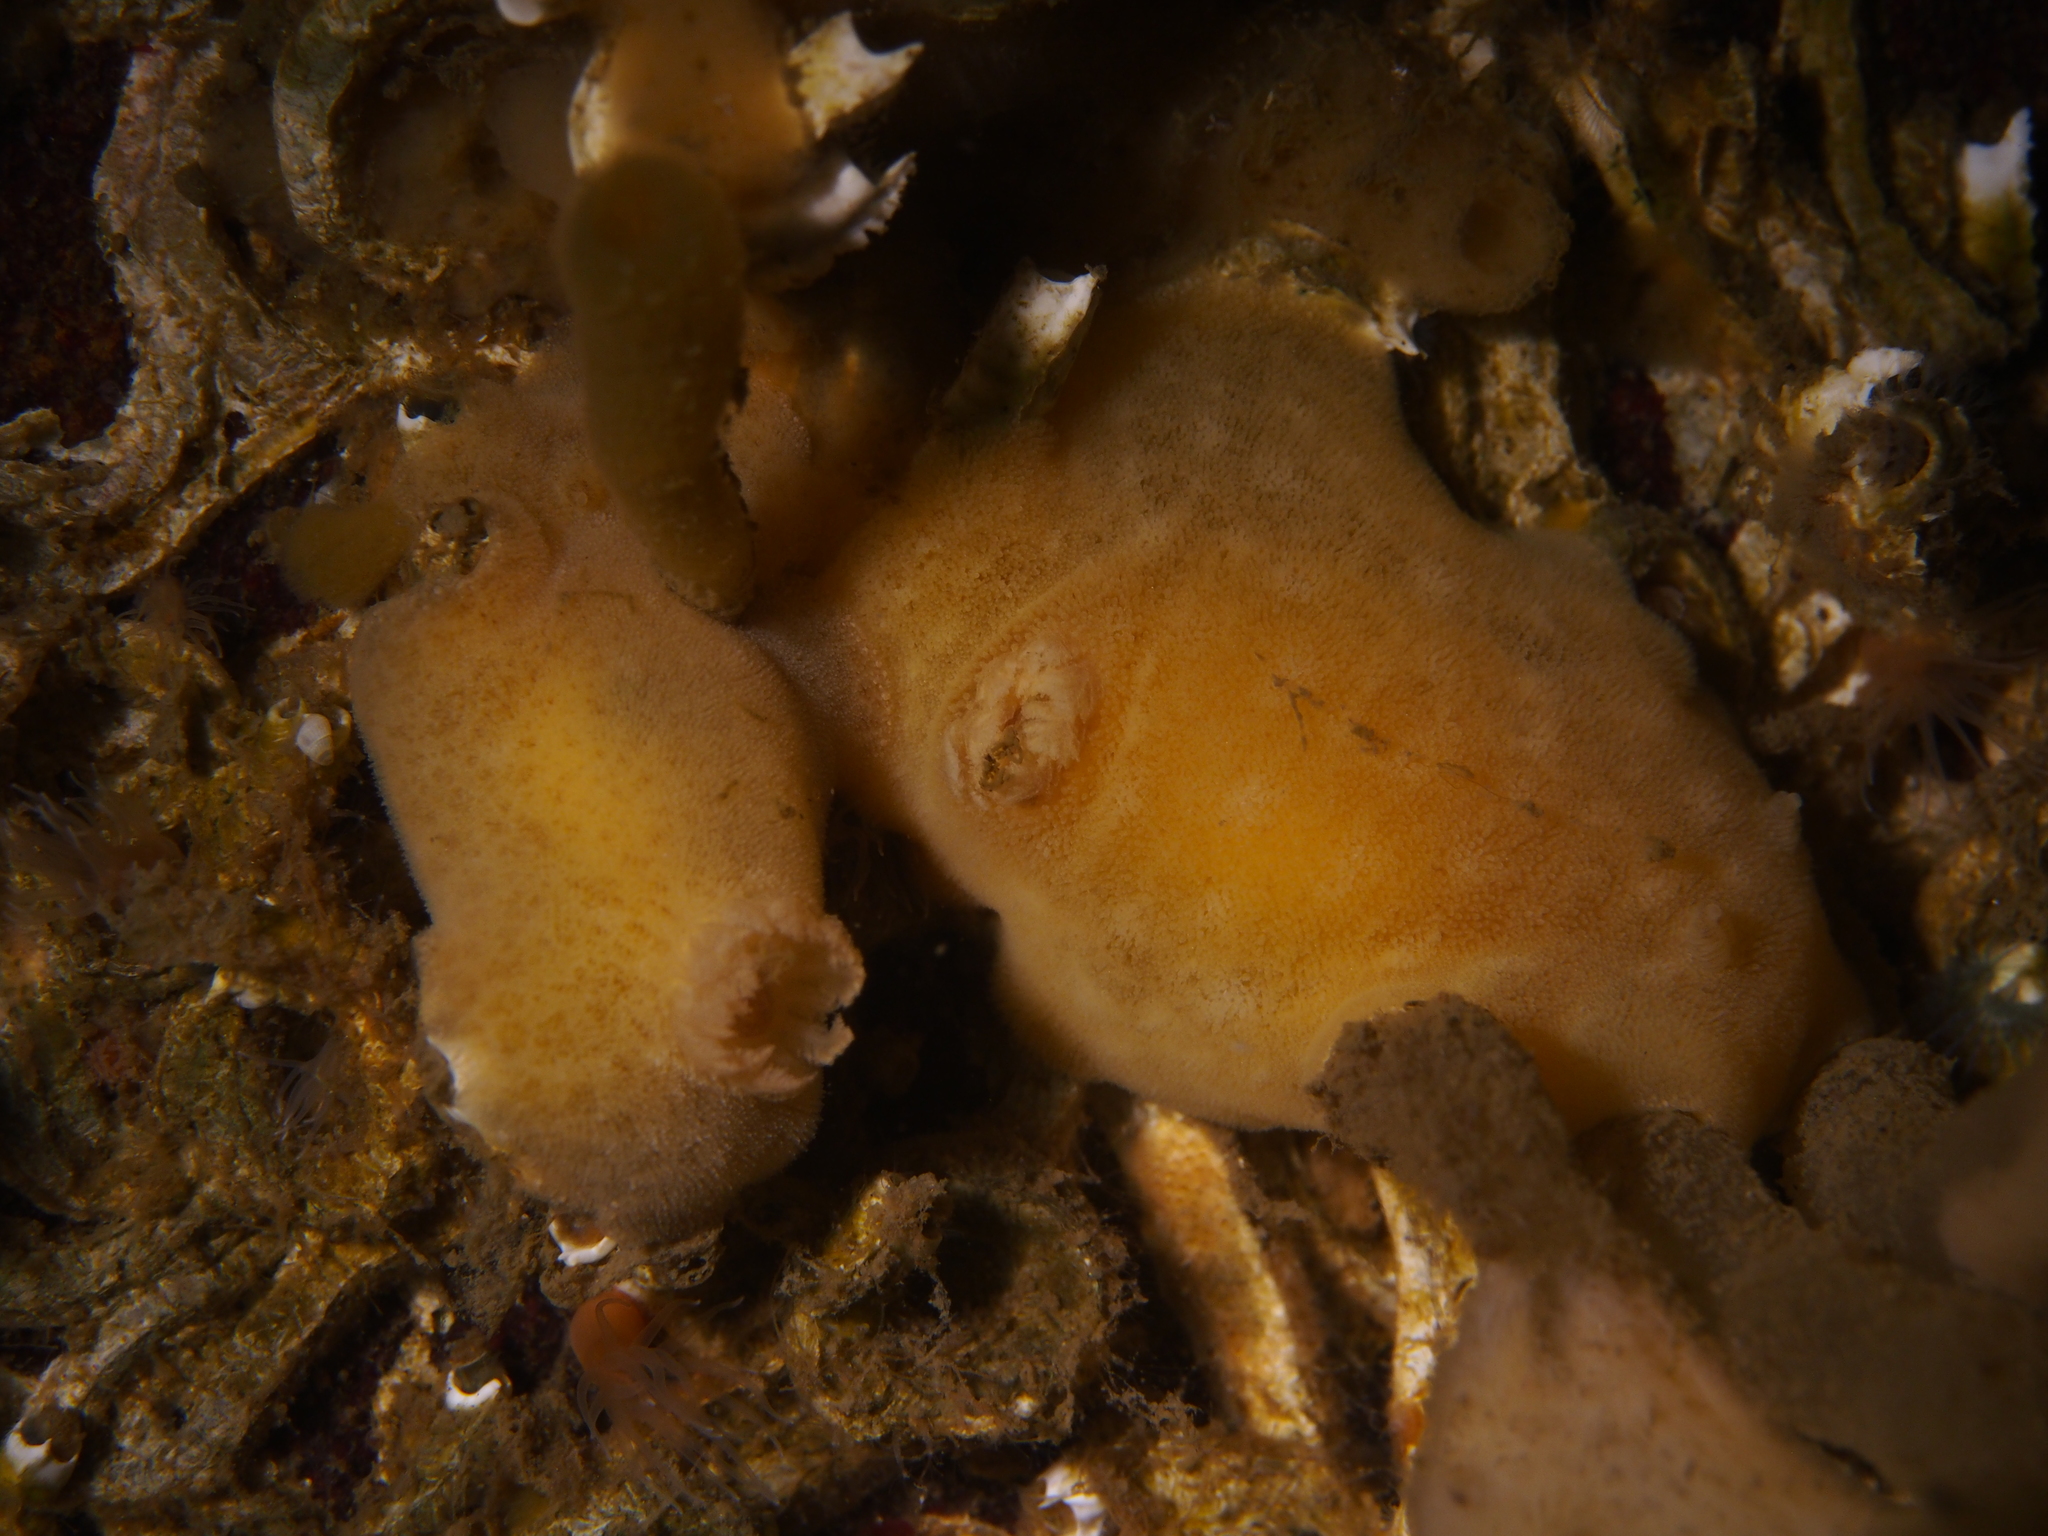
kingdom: Animalia
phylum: Mollusca
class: Gastropoda
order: Nudibranchia
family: Discodorididae
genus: Jorunna
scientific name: Jorunna tomentosa
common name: Grey sea slug
